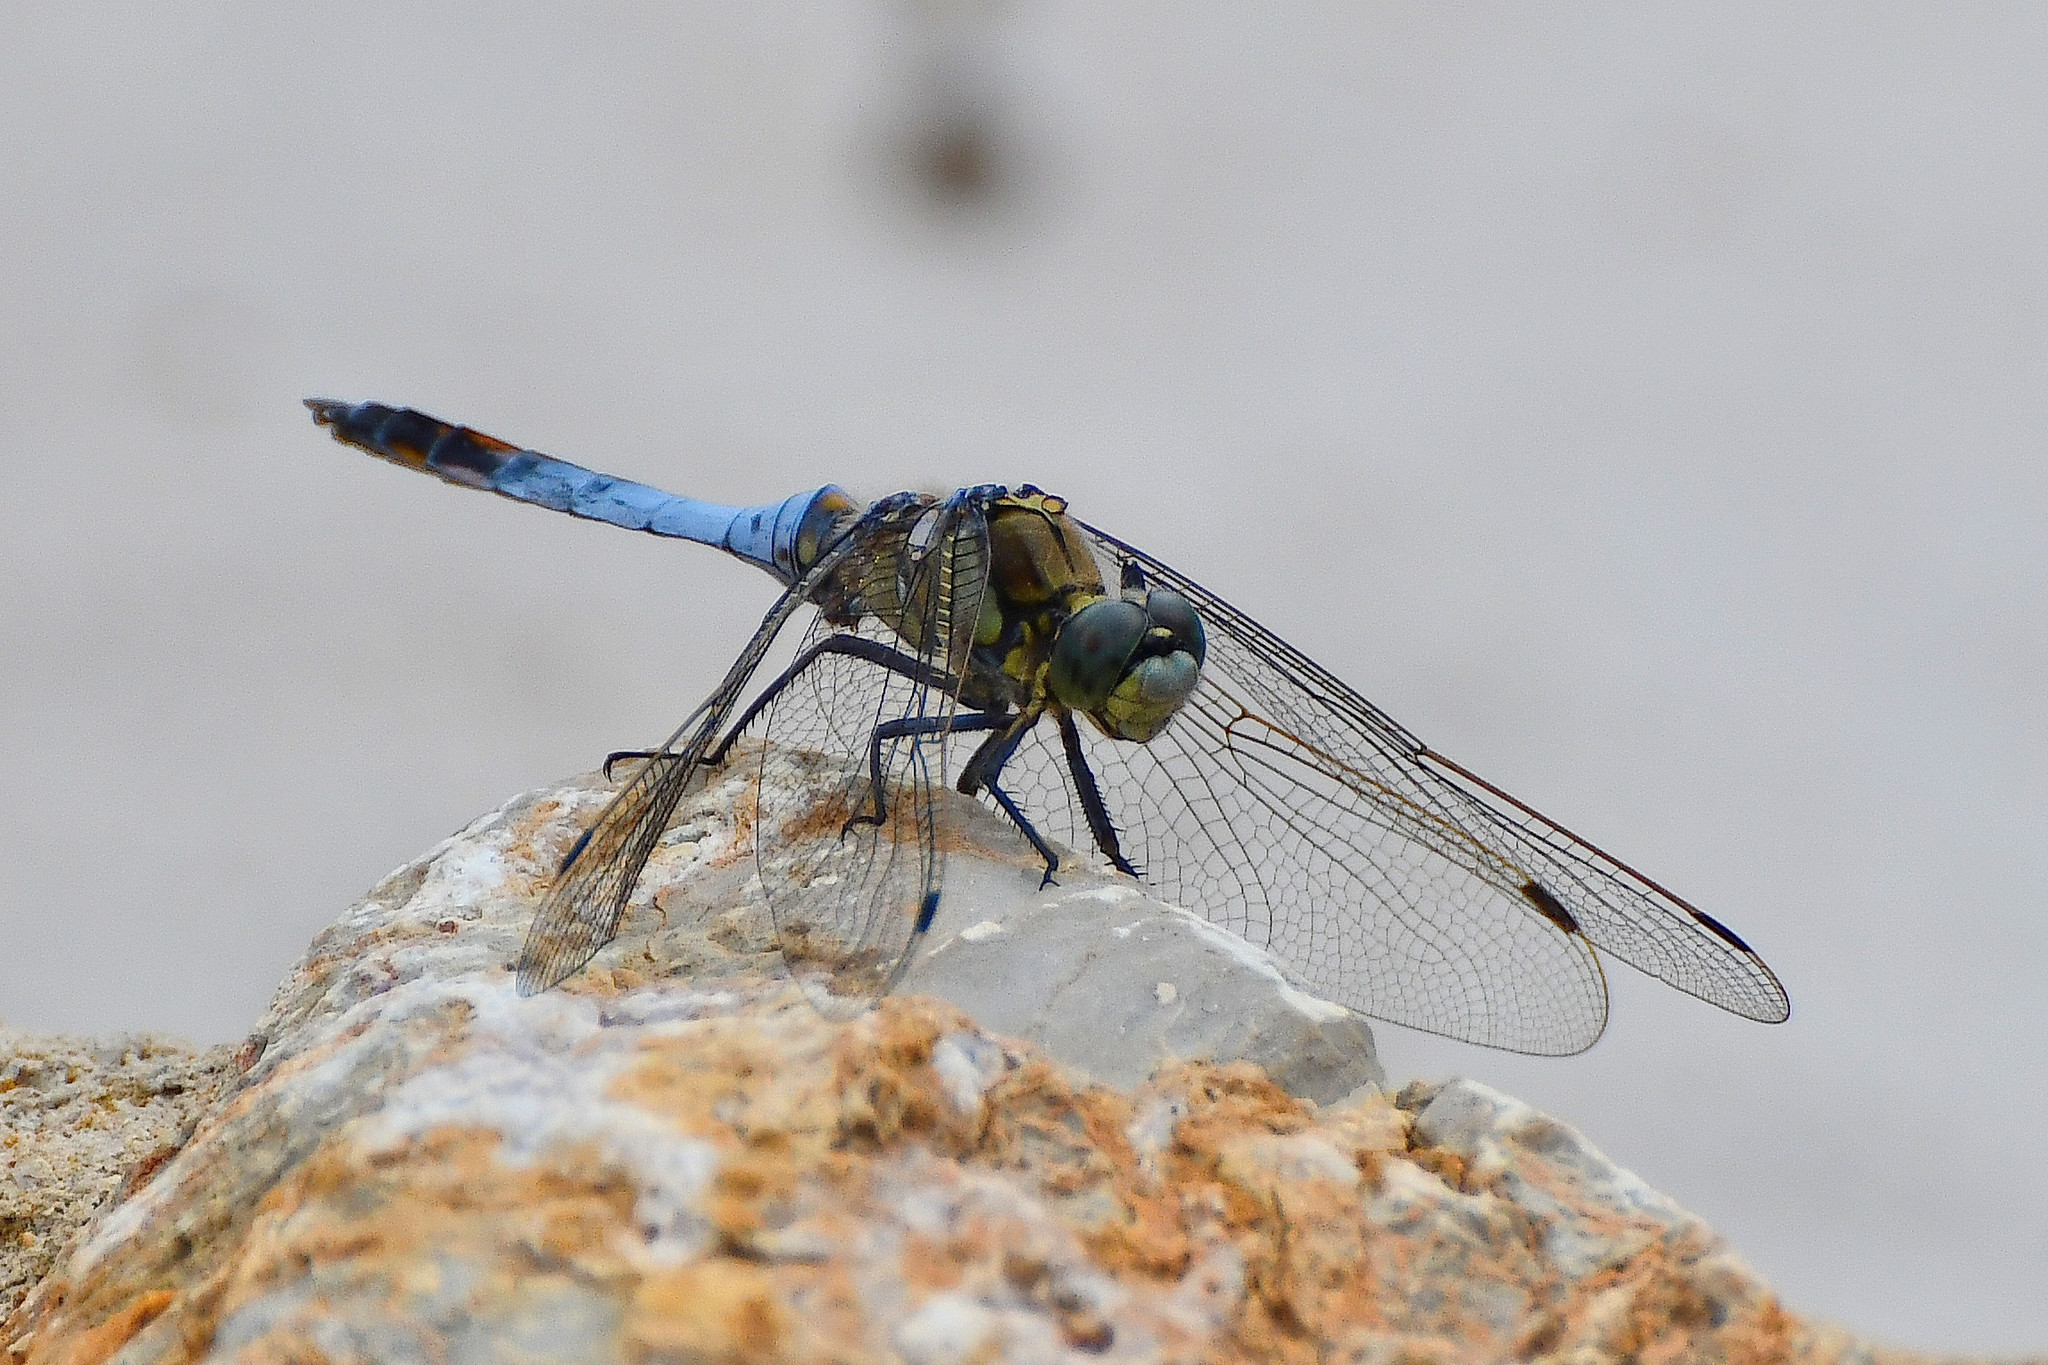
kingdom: Animalia
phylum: Arthropoda
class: Insecta
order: Odonata
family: Libellulidae
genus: Orthetrum
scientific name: Orthetrum cancellatum
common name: Black-tailed skimmer
